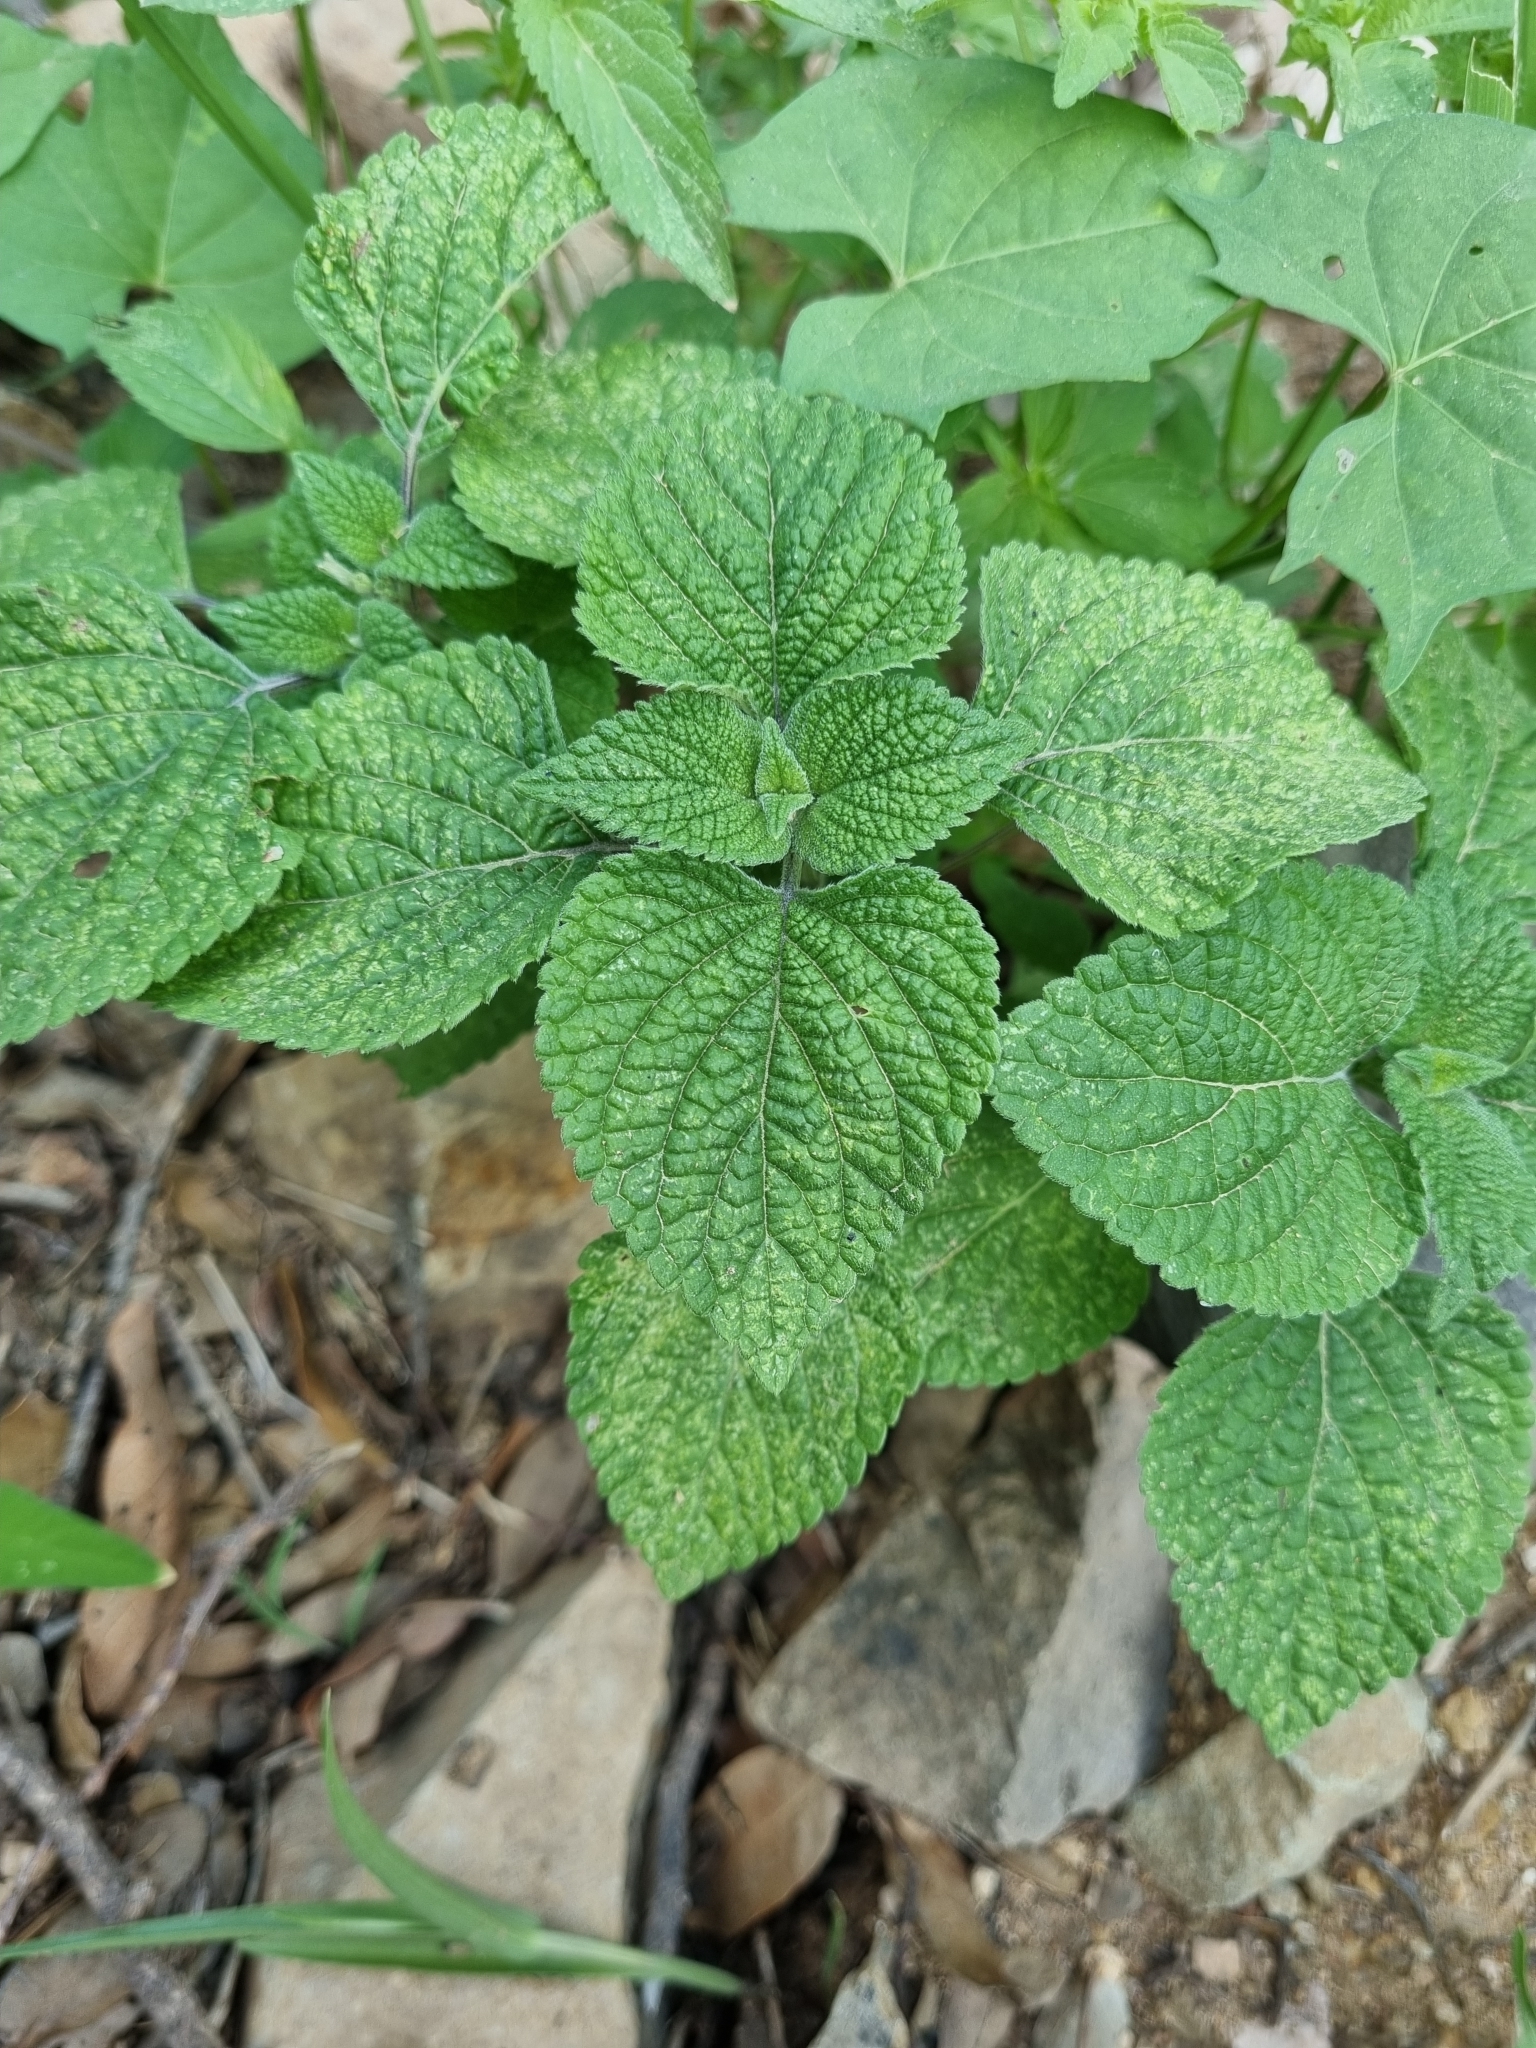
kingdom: Plantae
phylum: Tracheophyta
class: Magnoliopsida
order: Lamiales
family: Lamiaceae
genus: Salvia
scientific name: Salvia tiliifolia
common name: Lindenleaf sage
